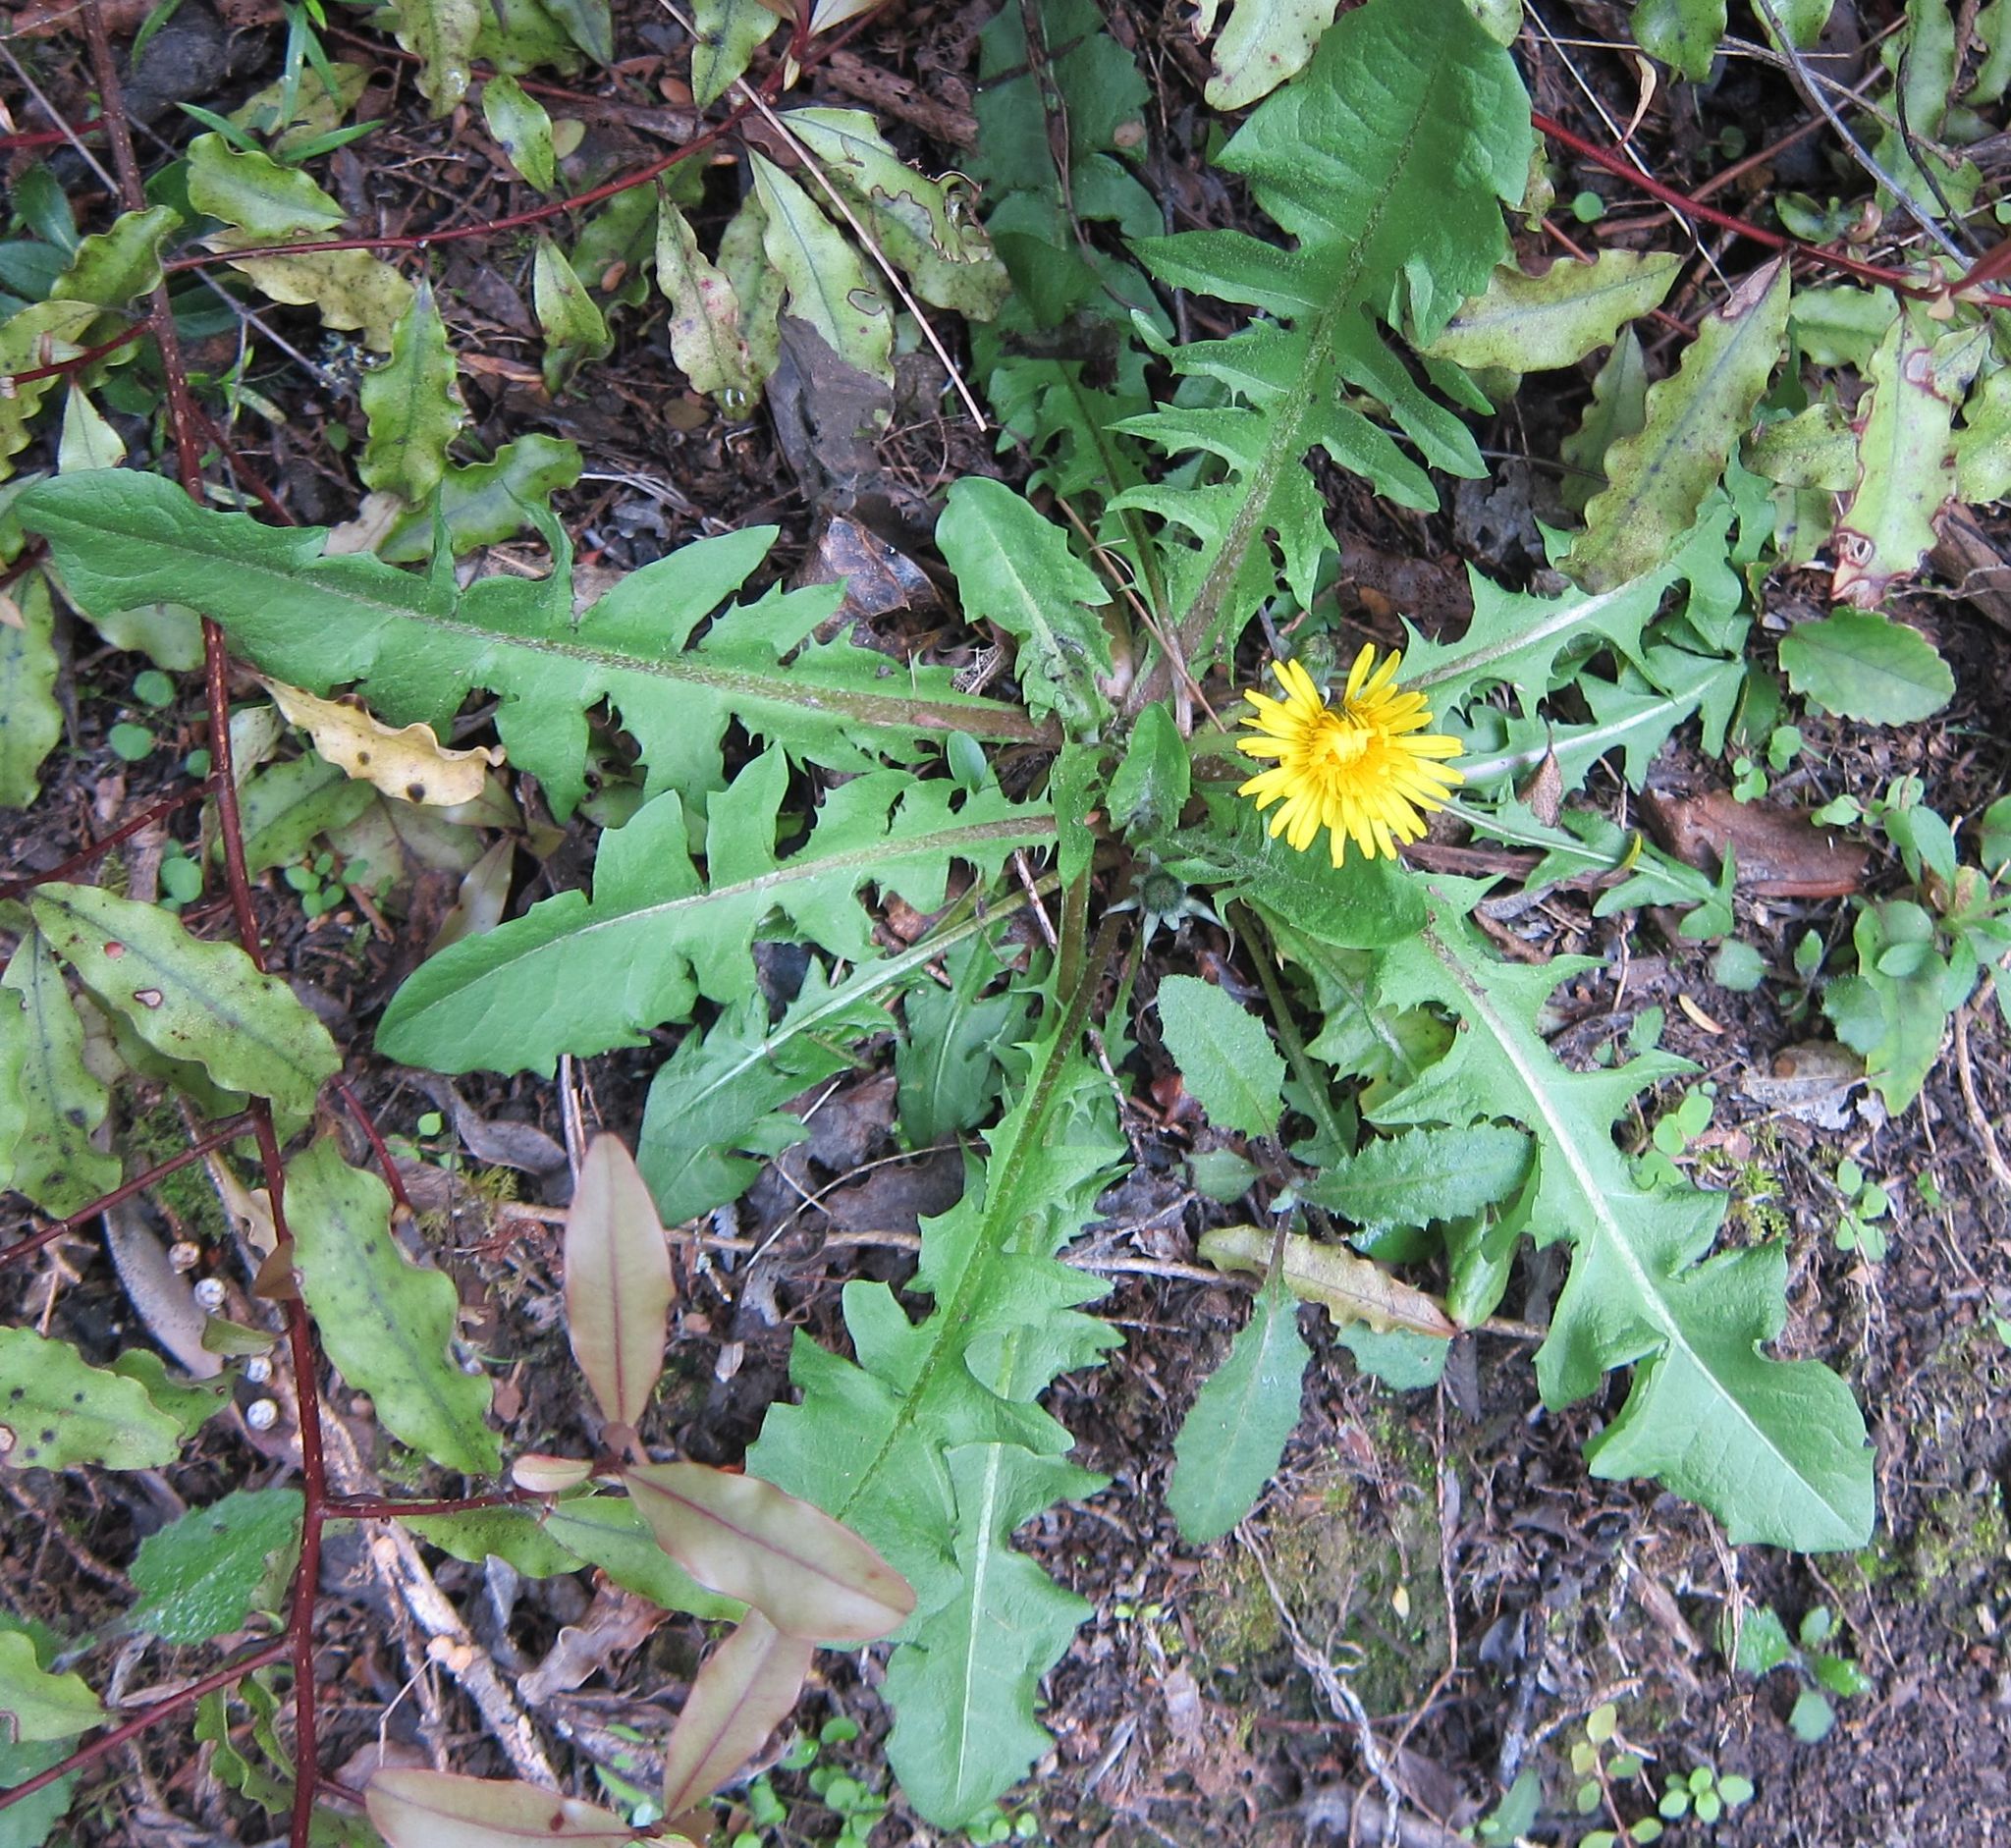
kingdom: Plantae
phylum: Tracheophyta
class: Magnoliopsida
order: Asterales
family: Asteraceae
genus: Taraxacum
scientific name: Taraxacum officinale
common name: Common dandelion
